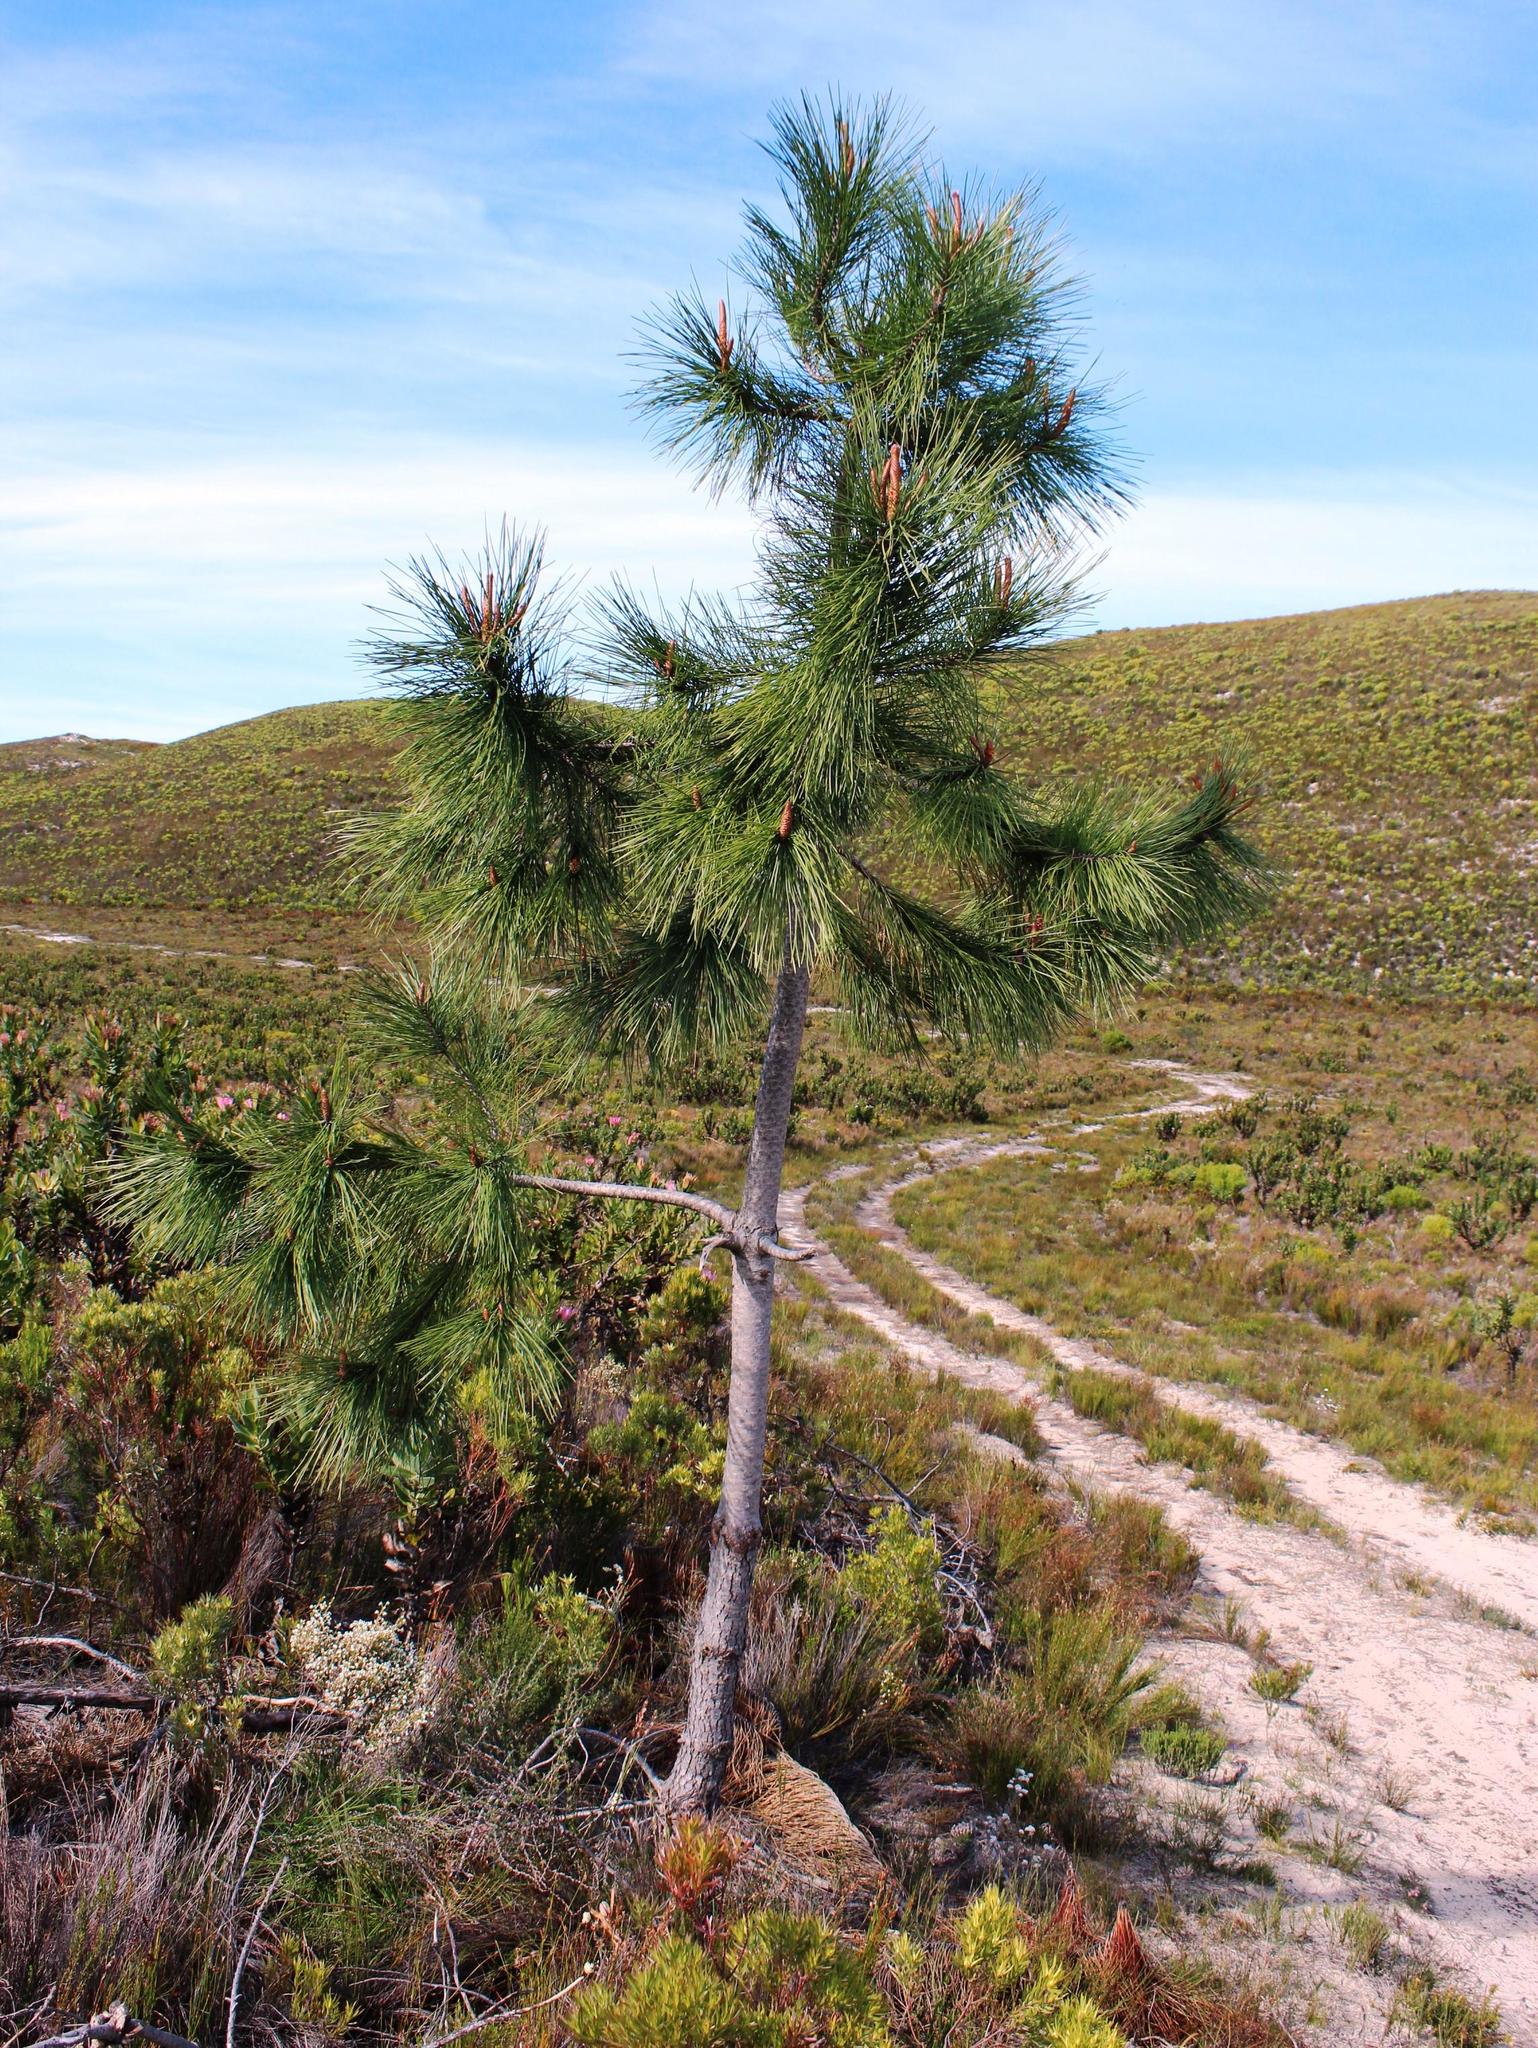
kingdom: Plantae
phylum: Tracheophyta
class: Pinopsida
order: Pinales
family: Pinaceae
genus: Pinus
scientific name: Pinus pinaster
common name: Maritime pine
